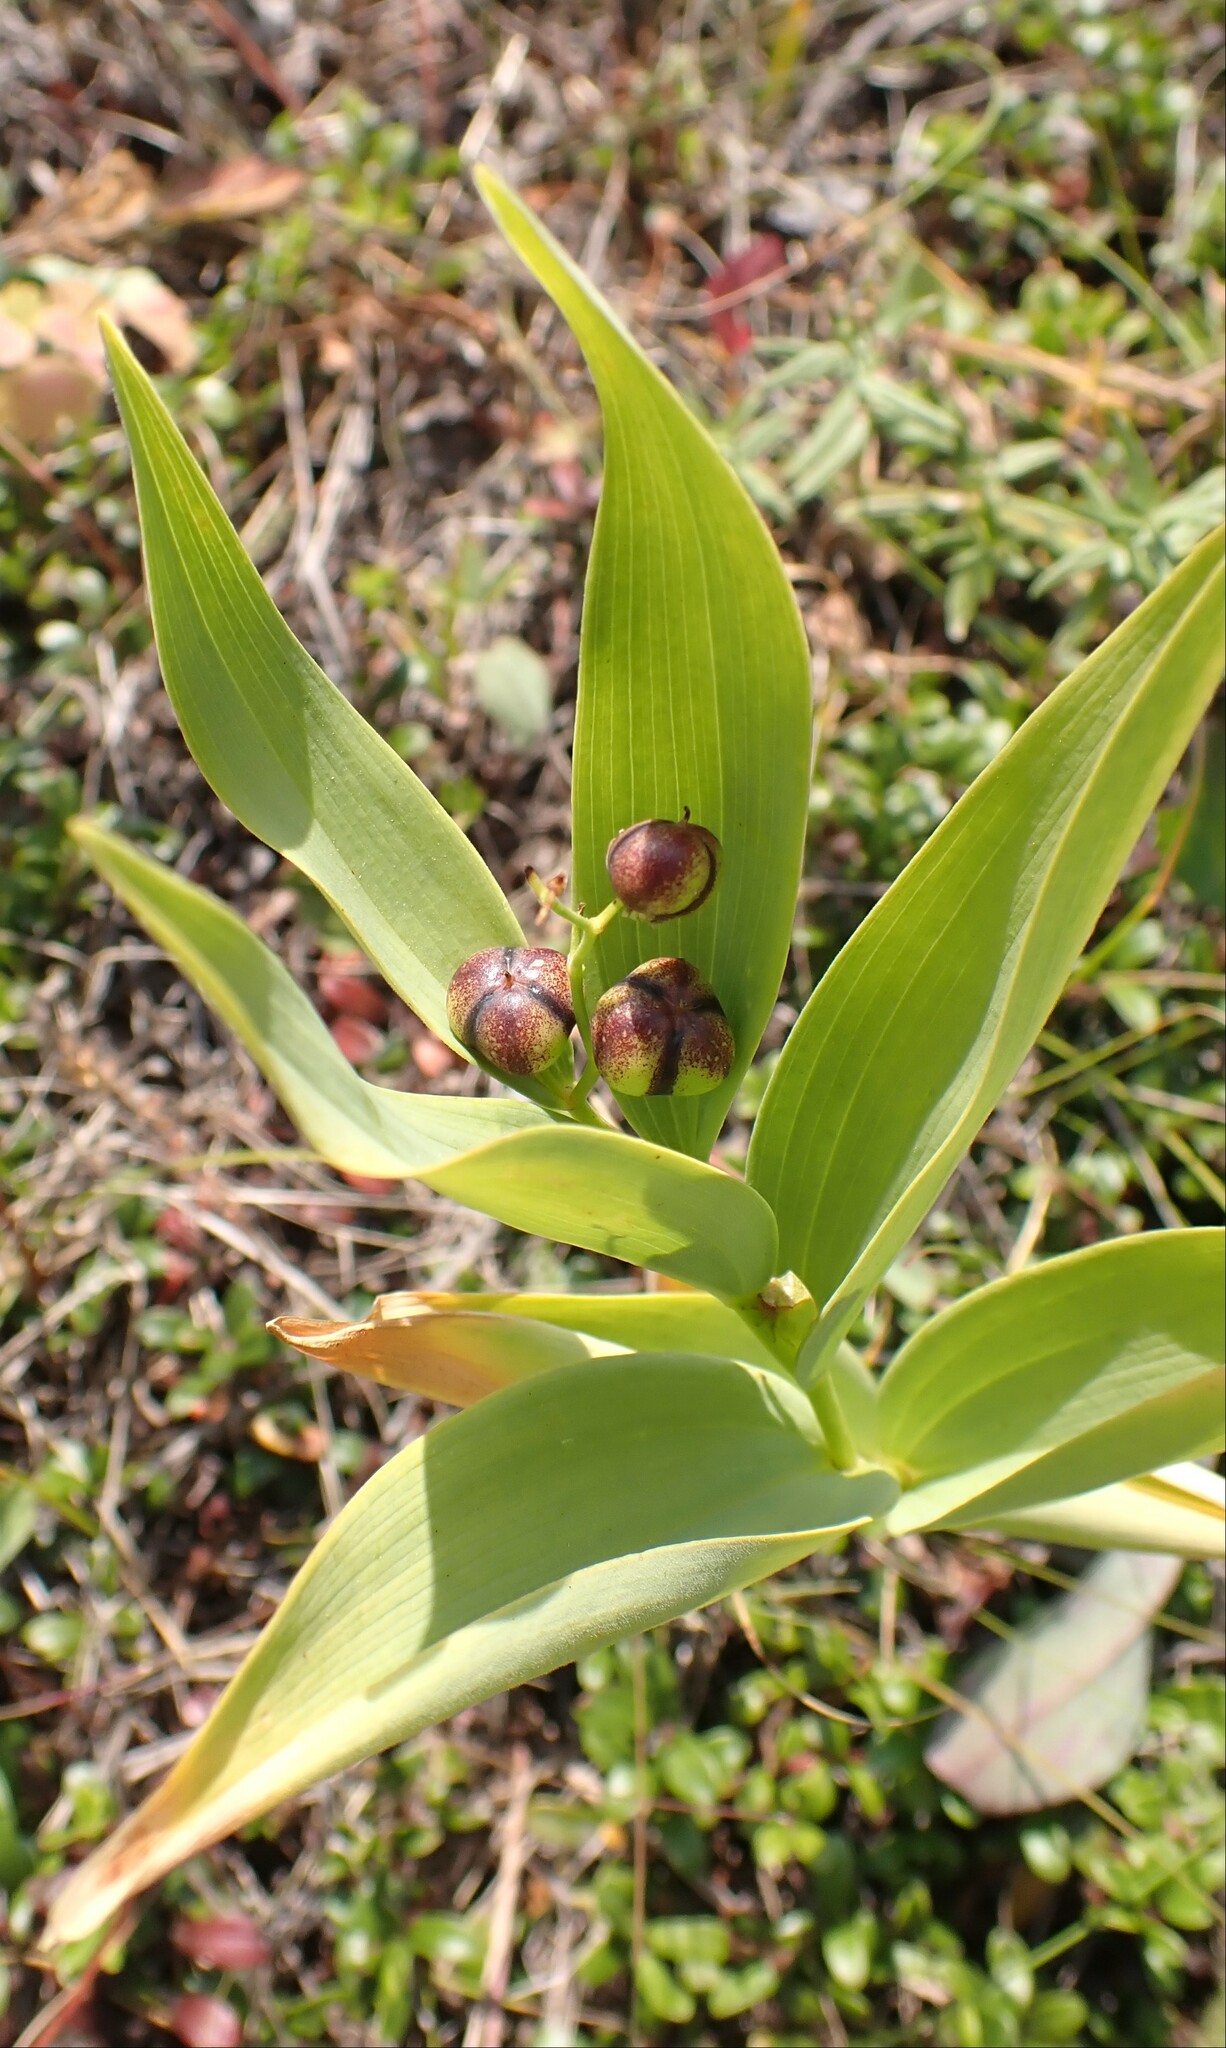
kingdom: Plantae
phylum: Tracheophyta
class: Liliopsida
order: Asparagales
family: Asparagaceae
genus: Maianthemum
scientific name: Maianthemum stellatum
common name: Little false solomon's seal
